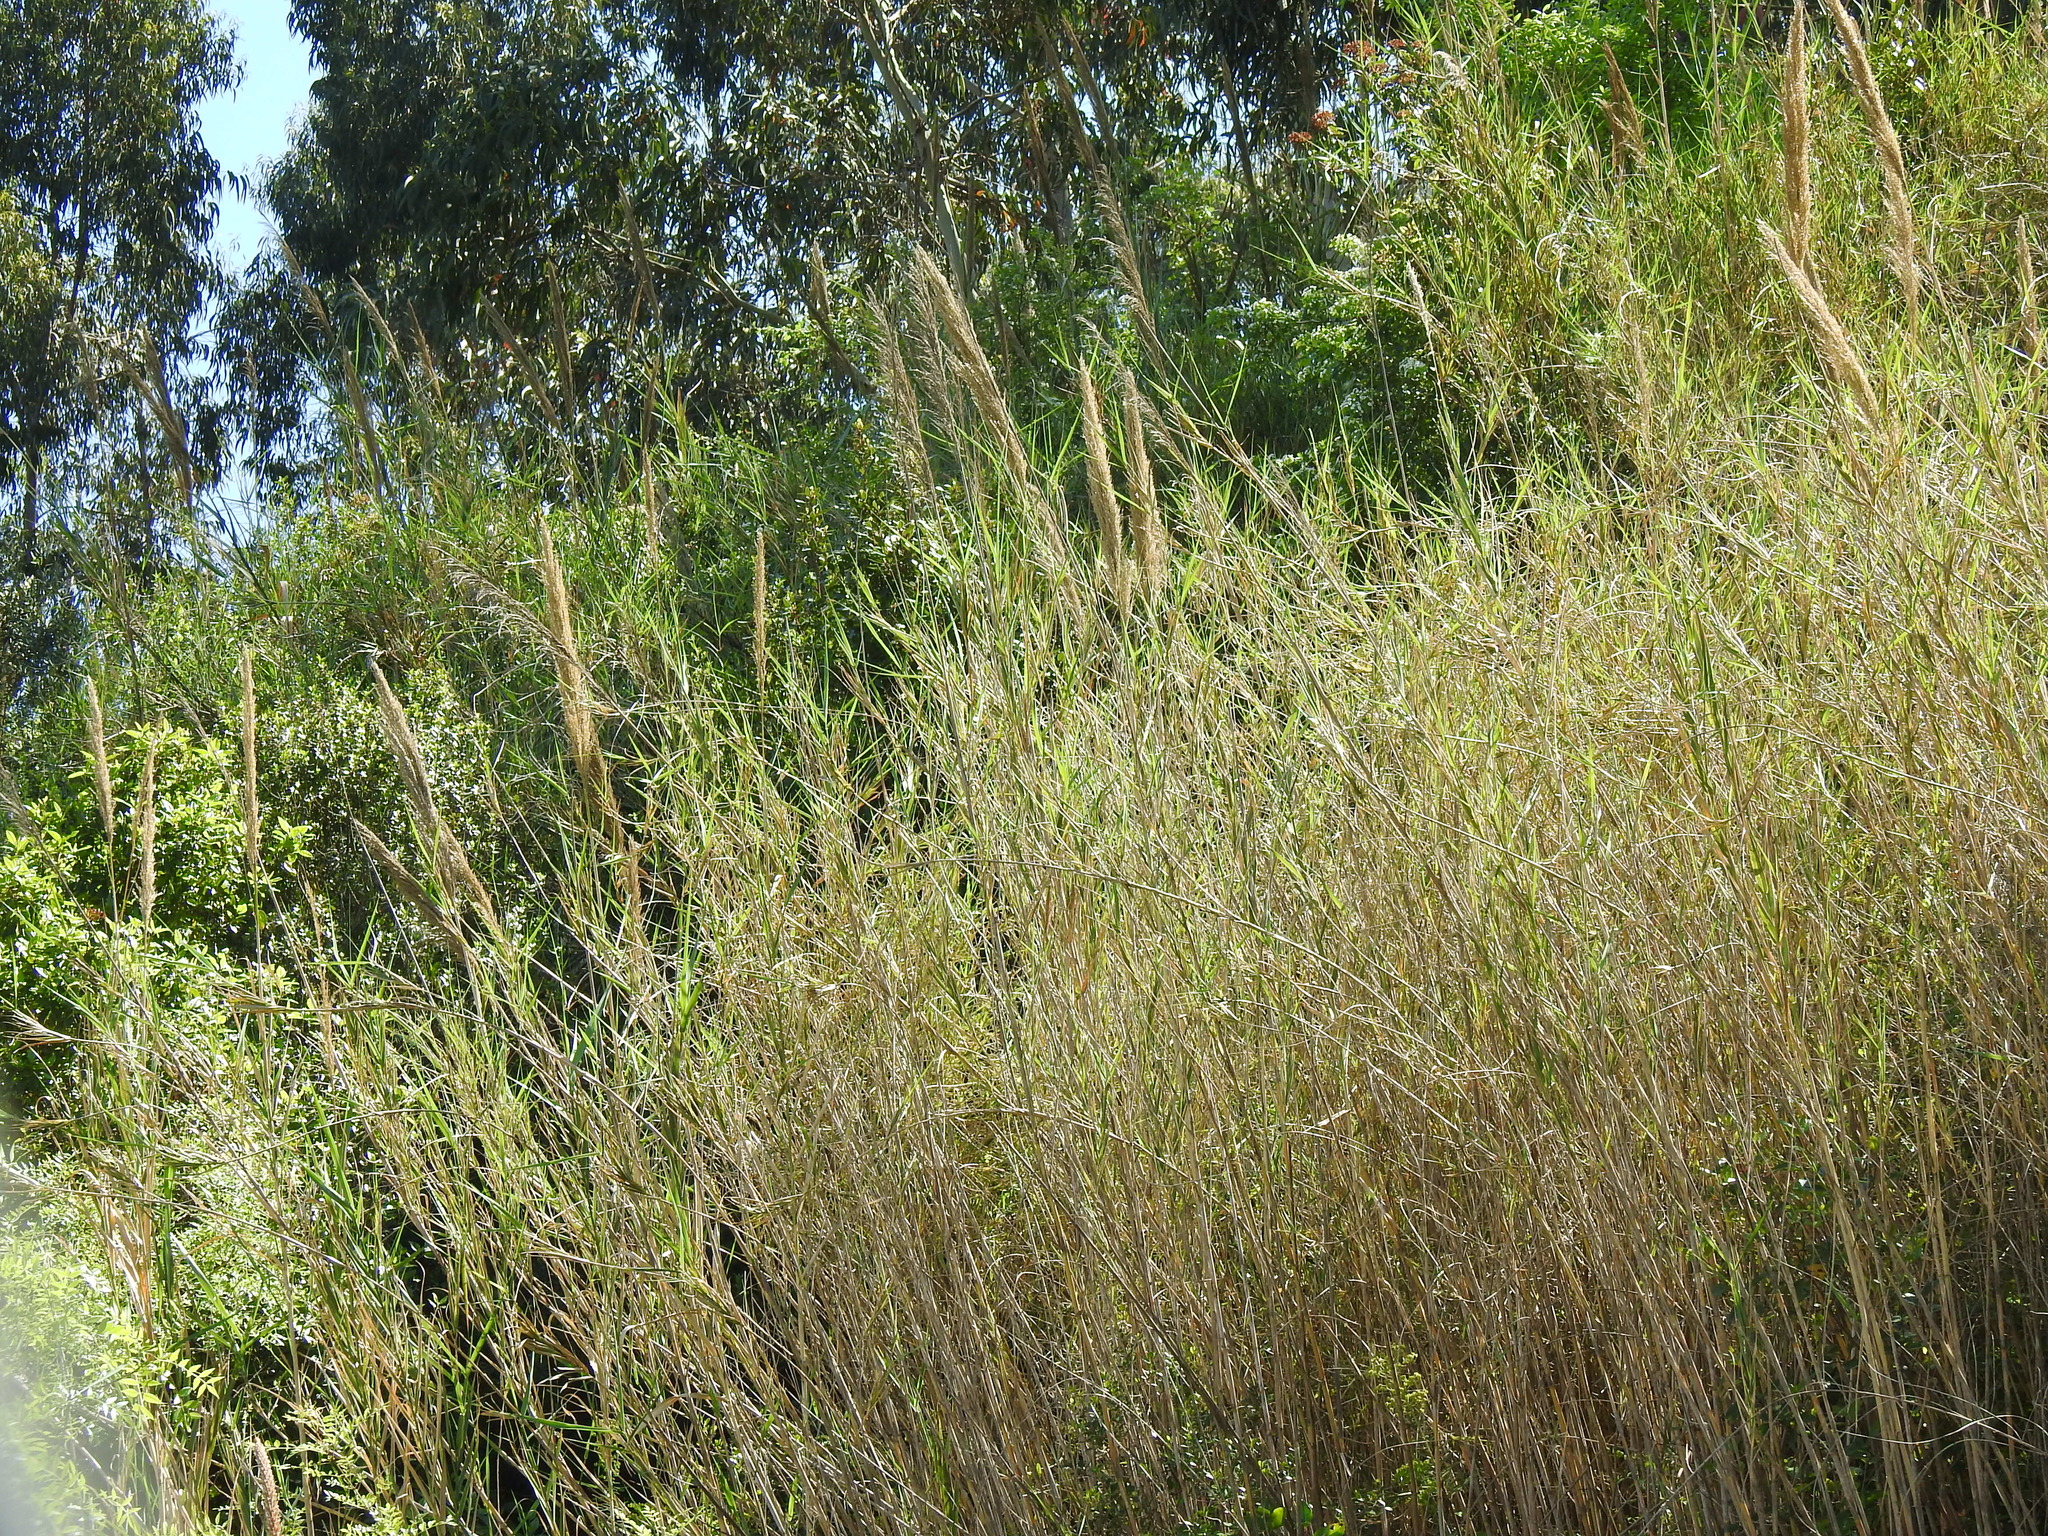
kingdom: Plantae
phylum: Tracheophyta
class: Liliopsida
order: Poales
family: Poaceae
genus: Arundo
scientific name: Arundo micrantha
